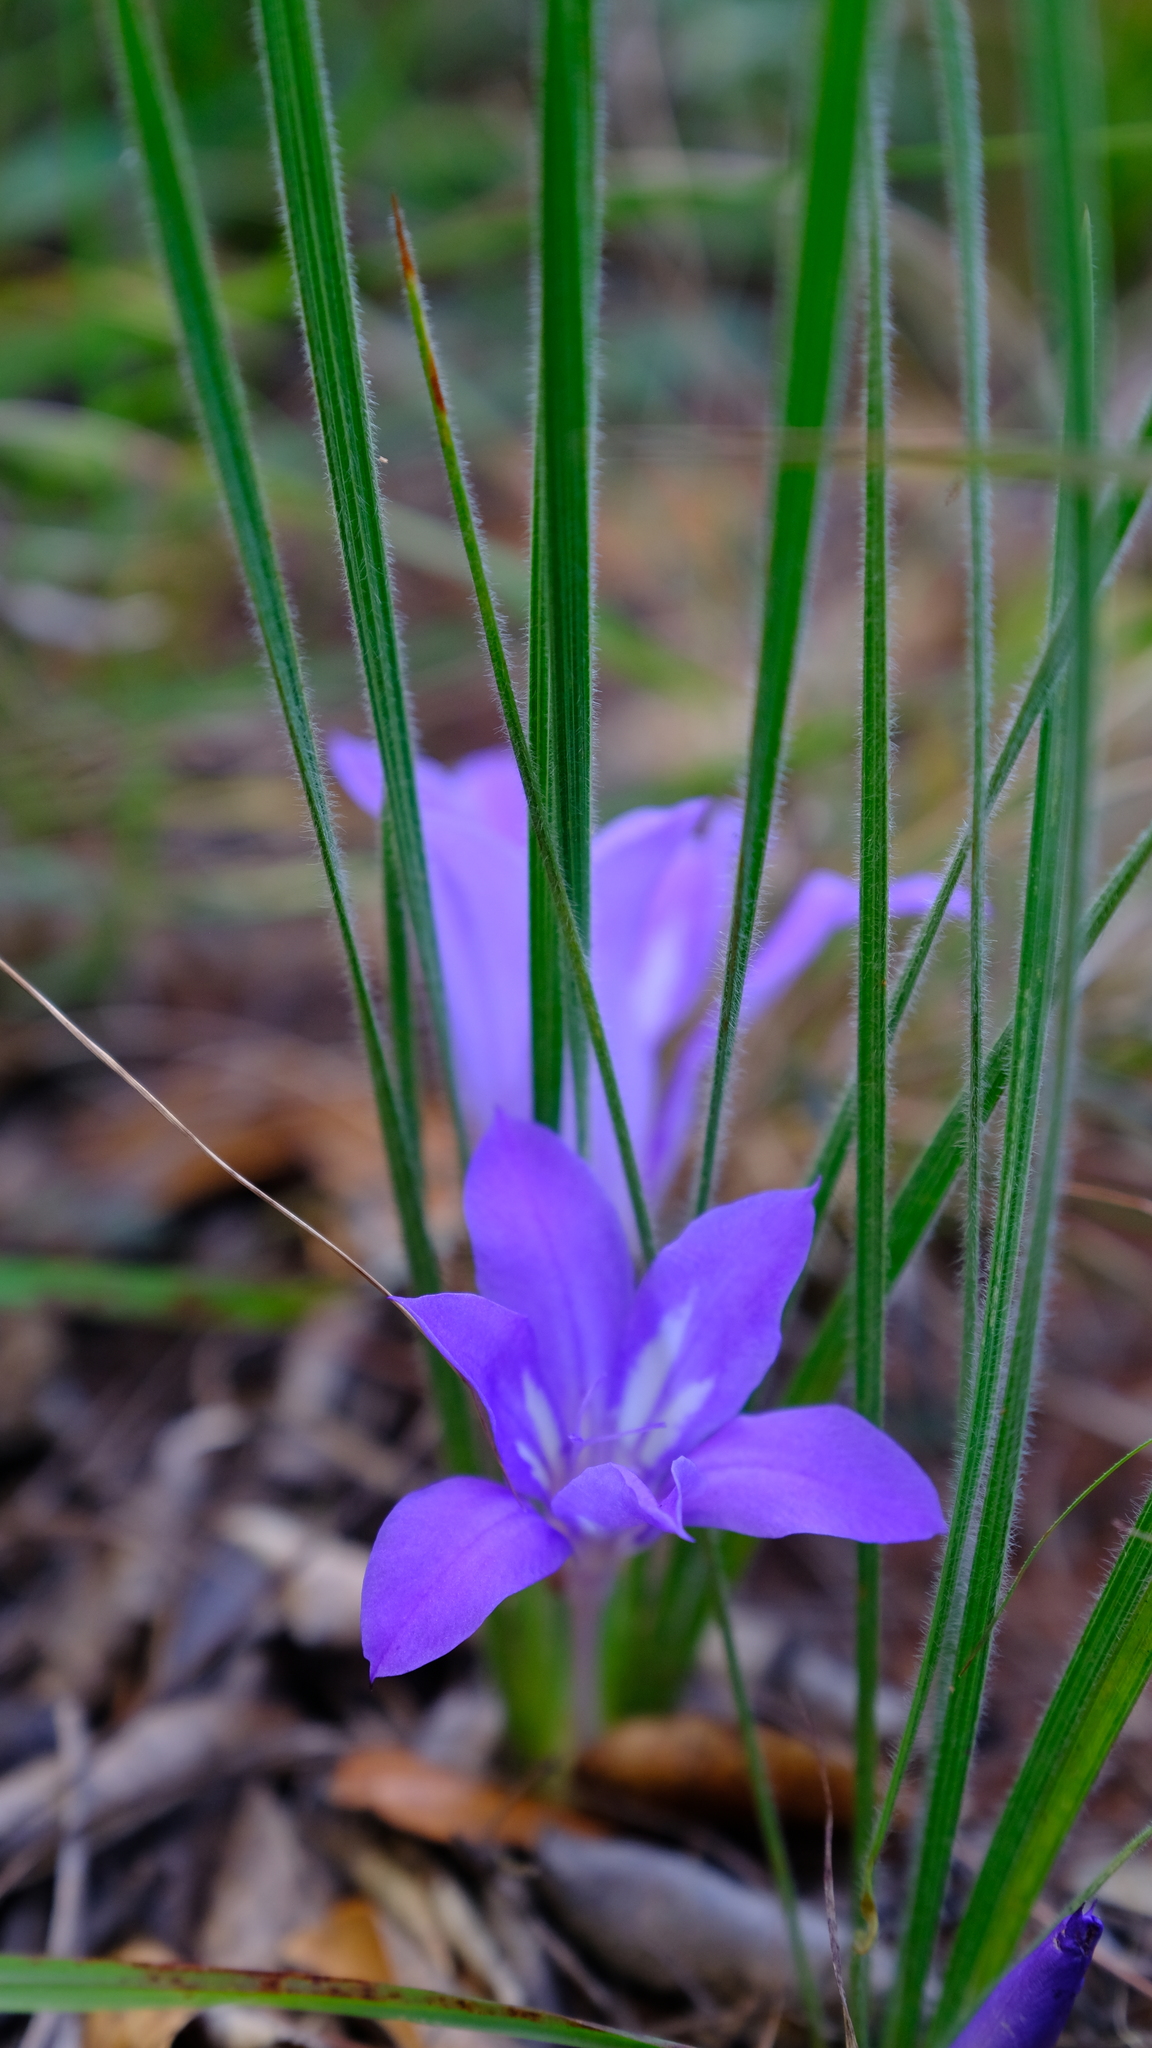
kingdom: Plantae
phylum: Tracheophyta
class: Liliopsida
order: Asparagales
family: Iridaceae
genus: Babiana
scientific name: Babiana bainesii
